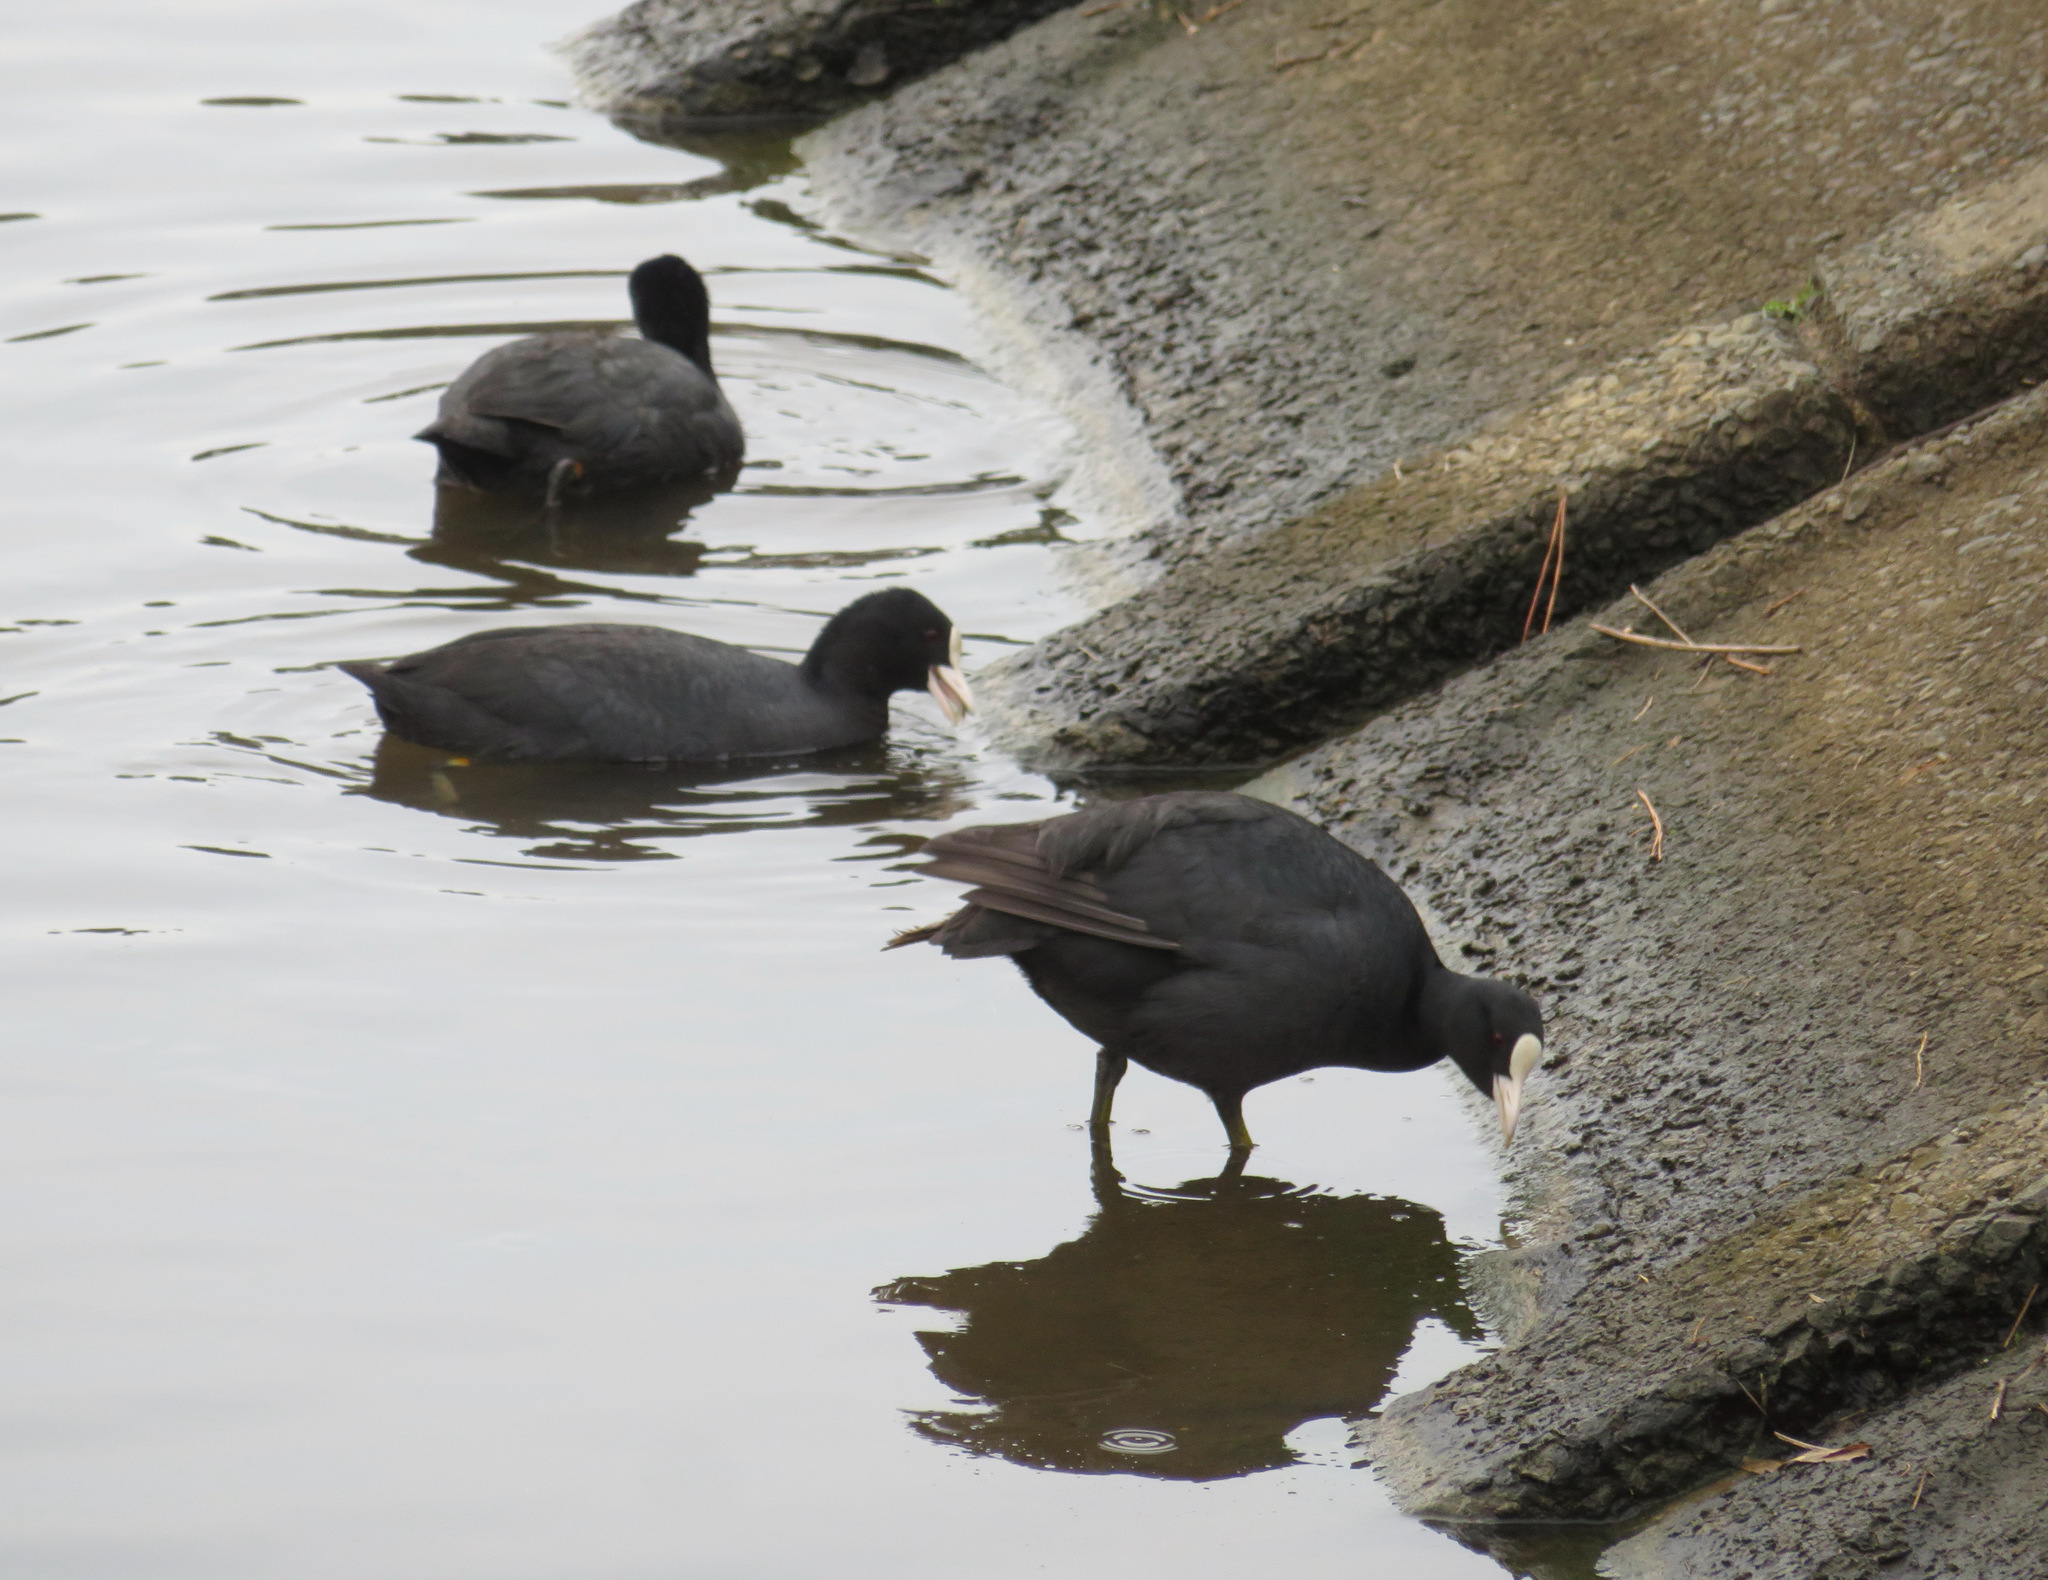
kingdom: Animalia
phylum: Chordata
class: Aves
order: Gruiformes
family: Rallidae
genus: Fulica
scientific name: Fulica atra
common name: Eurasian coot
